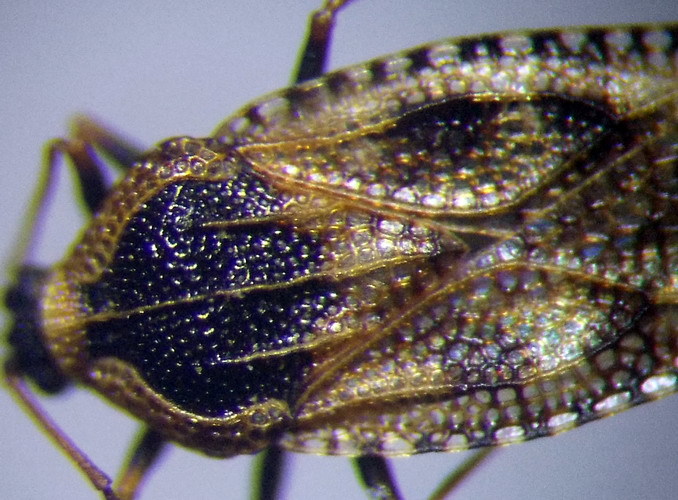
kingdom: Animalia
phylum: Arthropoda
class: Insecta
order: Hemiptera
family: Tingidae
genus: Dictyla
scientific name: Dictyla echii
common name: Lace bug
